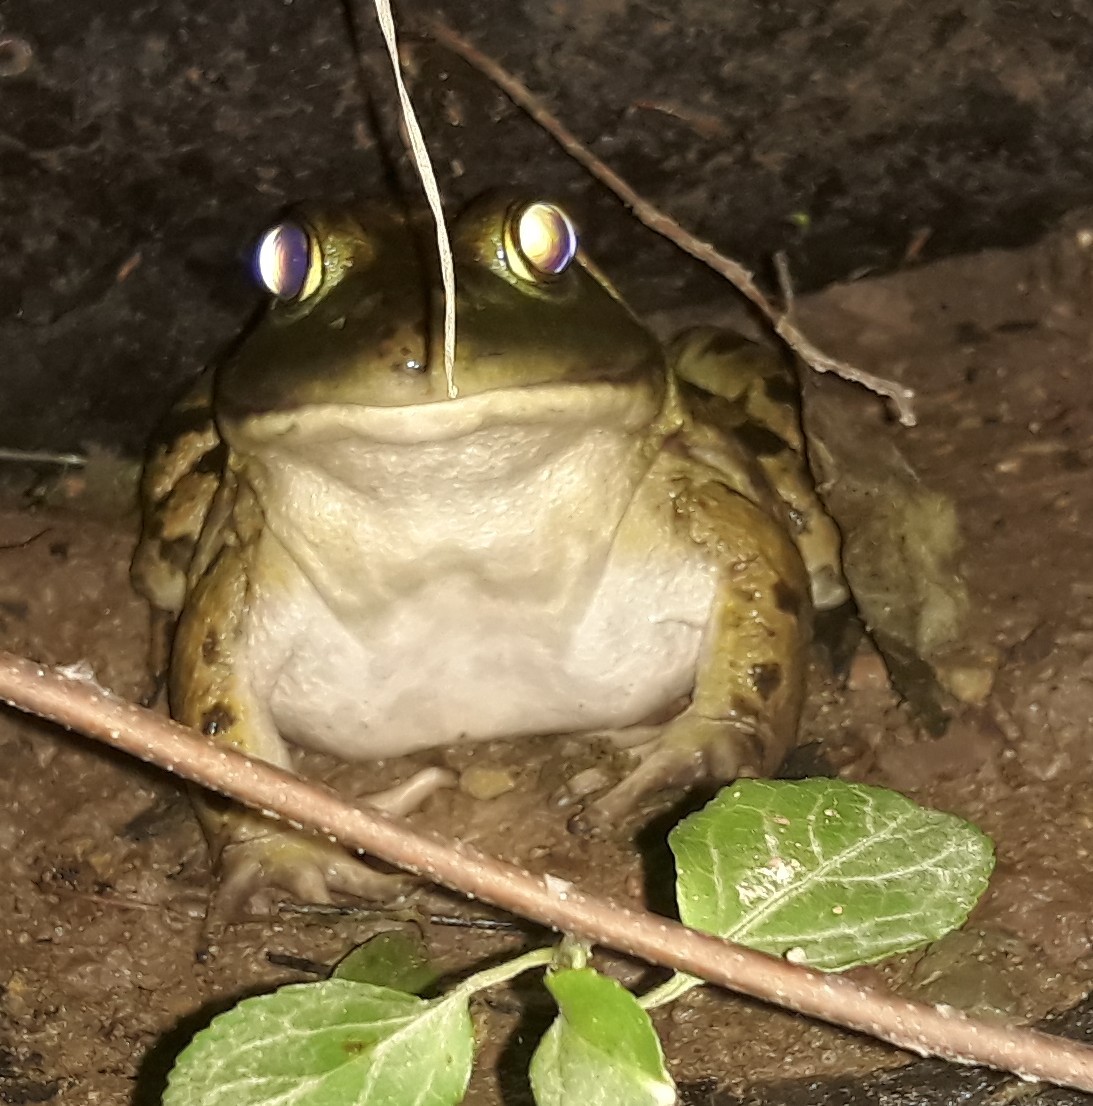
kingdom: Animalia
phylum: Chordata
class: Amphibia
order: Anura
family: Ranidae
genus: Lithobates
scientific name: Lithobates catesbeianus
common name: American bullfrog
